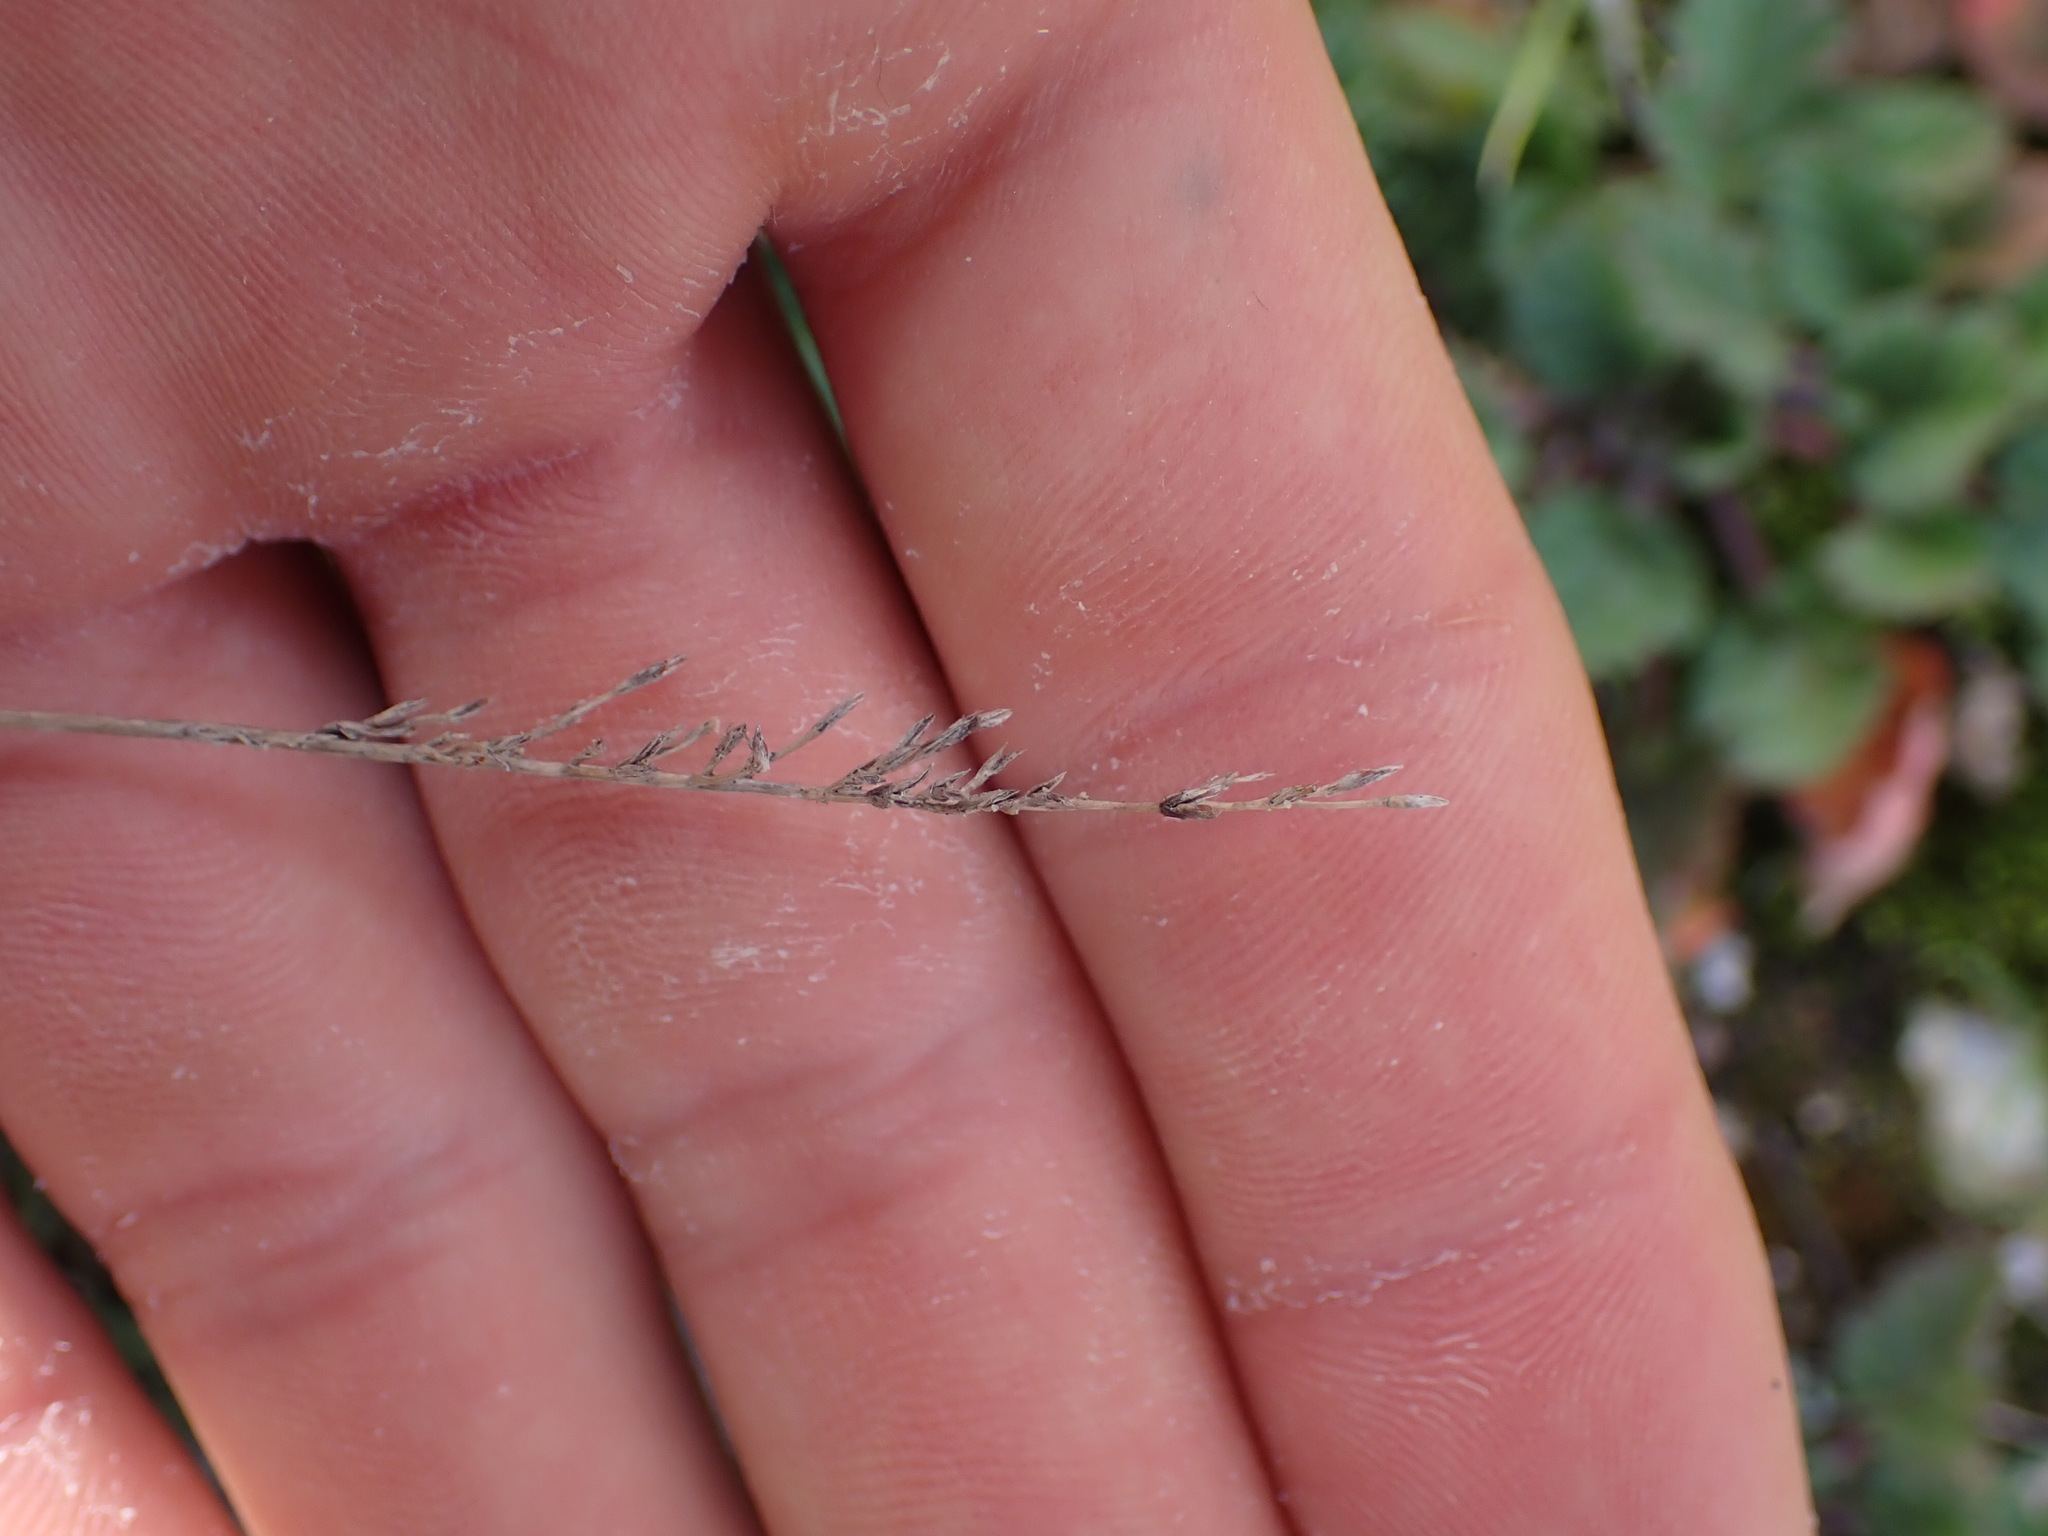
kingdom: Plantae
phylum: Tracheophyta
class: Liliopsida
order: Poales
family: Poaceae
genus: Catapodium
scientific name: Catapodium rigidum
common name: Fern-grass
